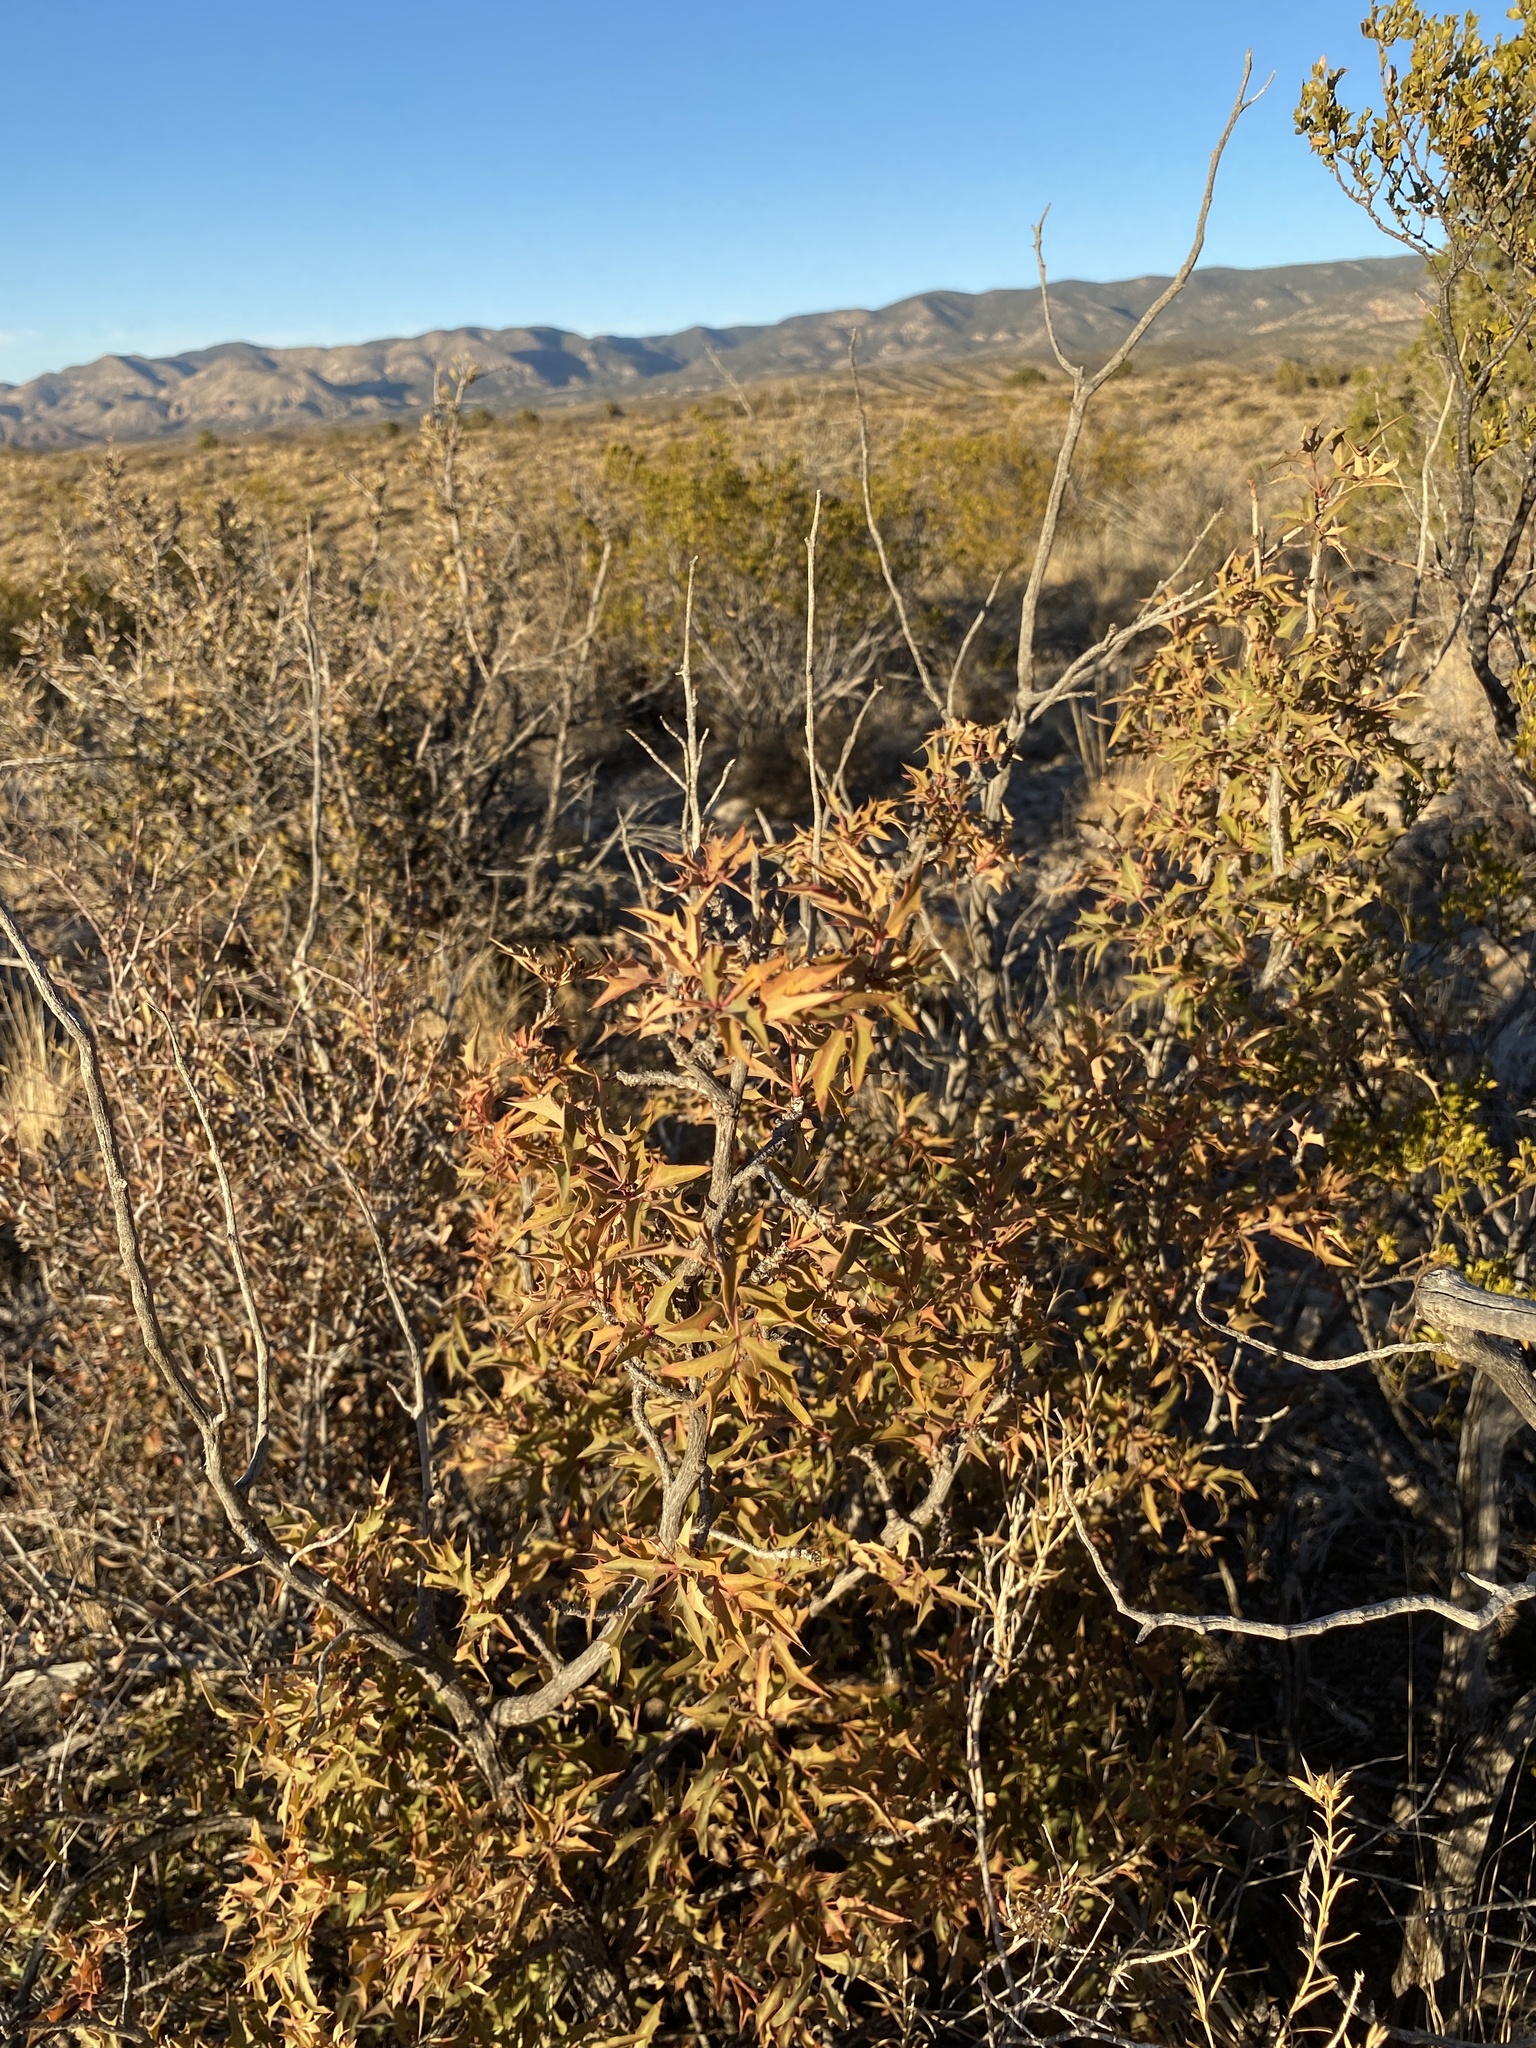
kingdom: Plantae
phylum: Tracheophyta
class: Magnoliopsida
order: Ranunculales
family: Berberidaceae
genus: Alloberberis
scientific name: Alloberberis haematocarpa
